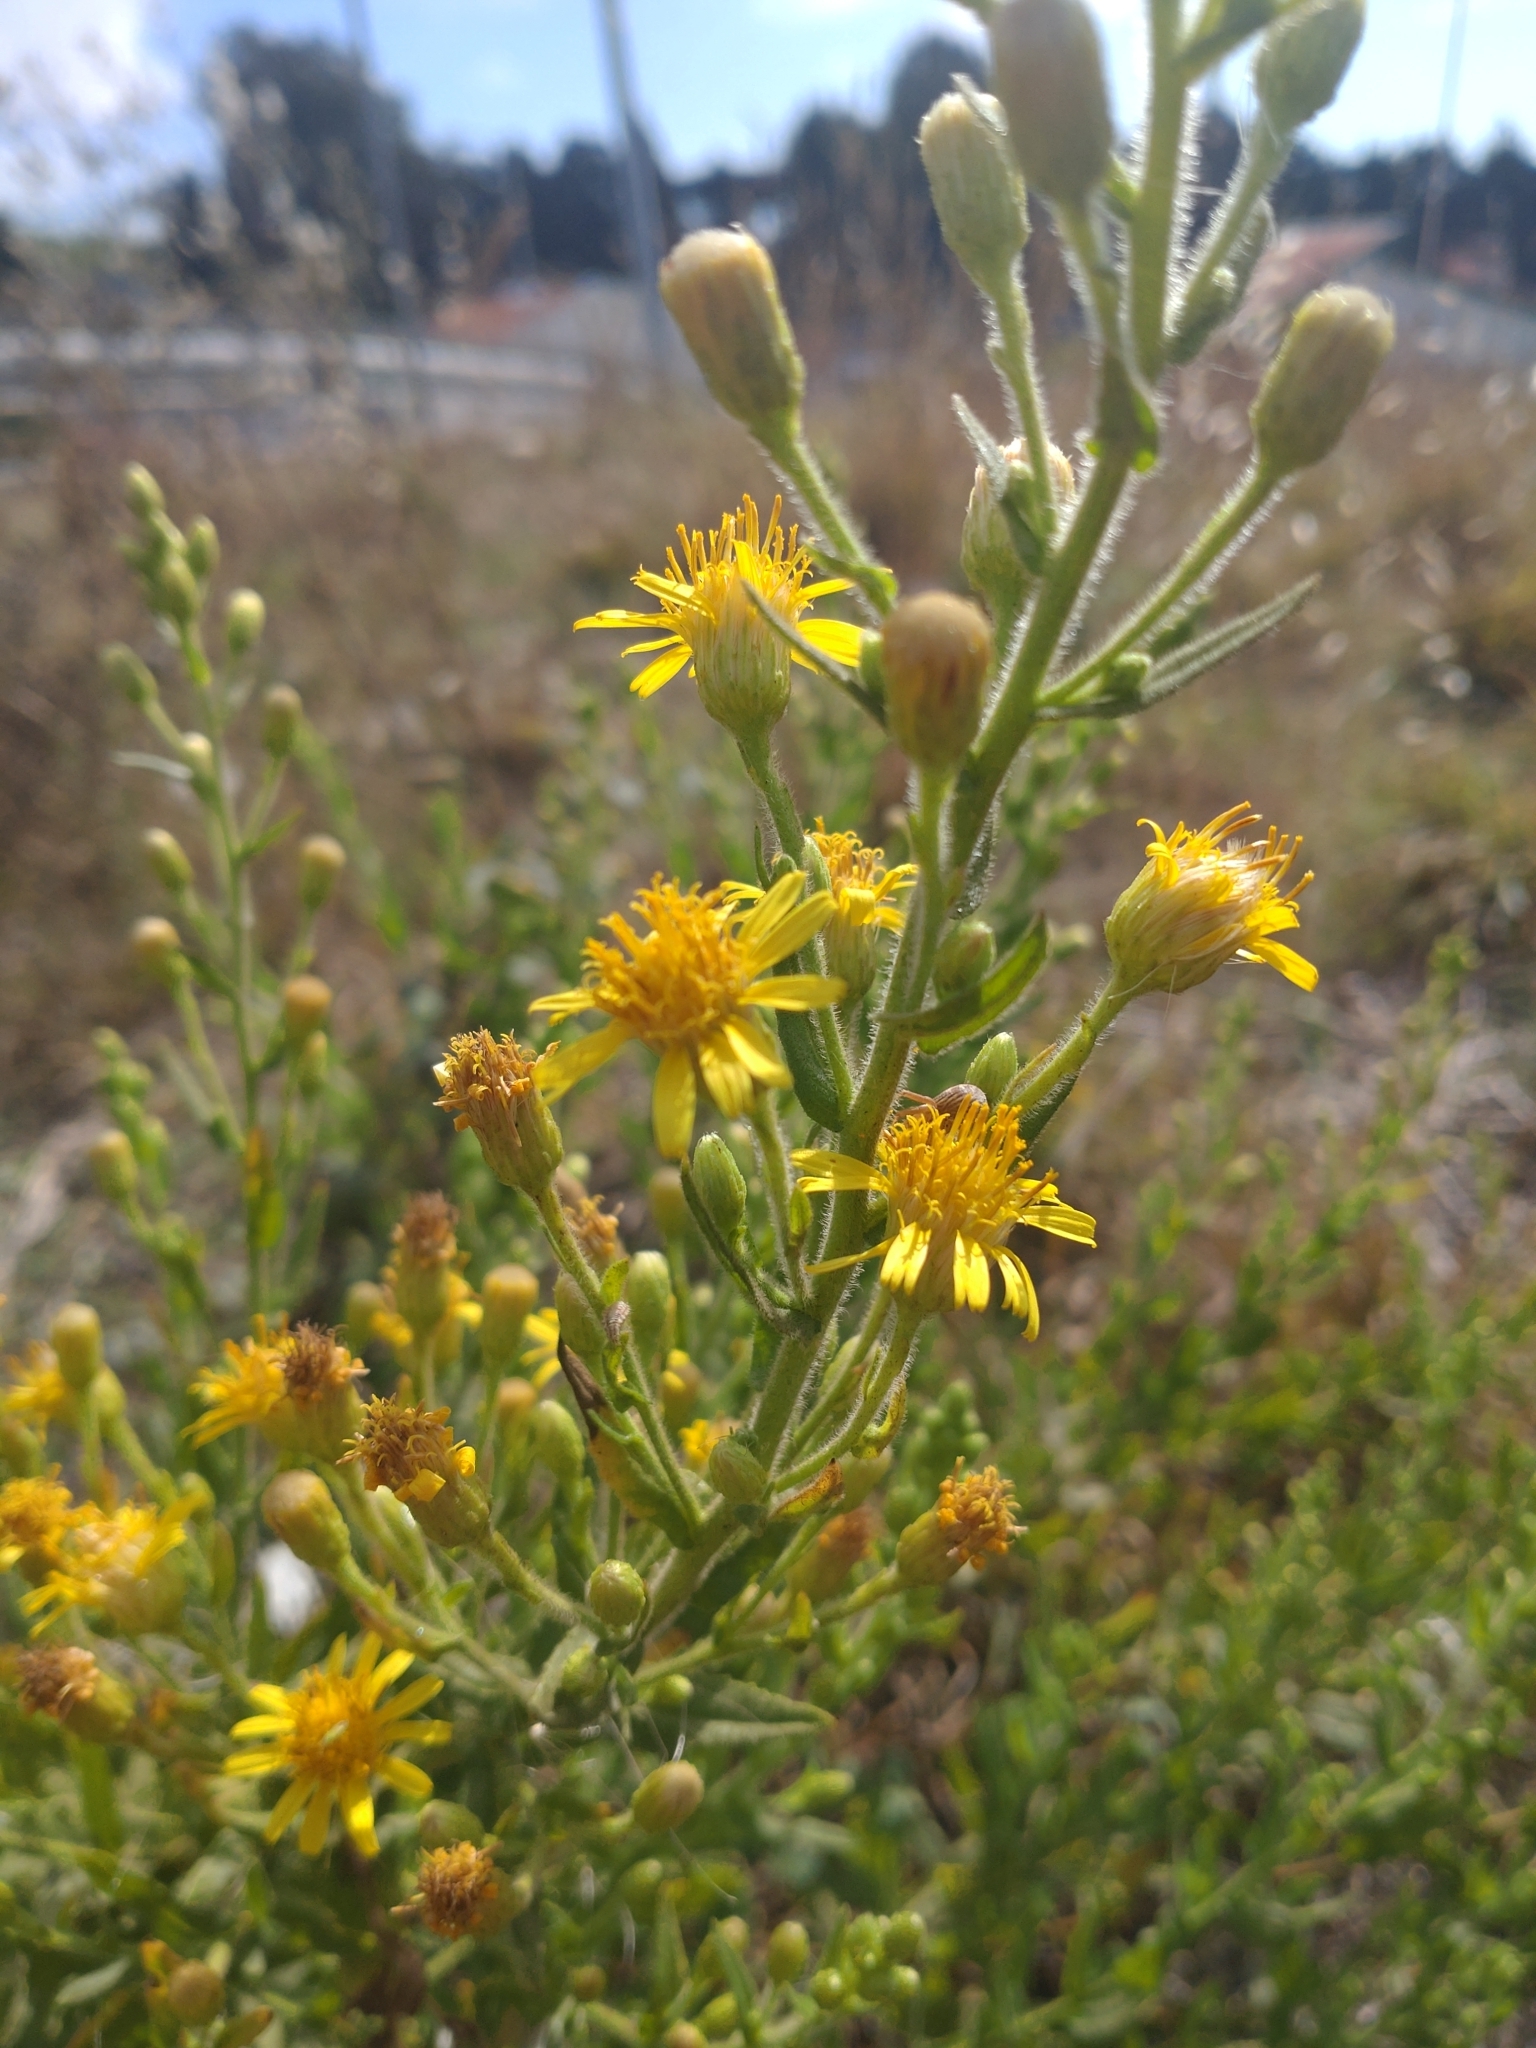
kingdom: Plantae
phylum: Tracheophyta
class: Magnoliopsida
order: Asterales
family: Asteraceae
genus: Dittrichia
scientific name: Dittrichia viscosa
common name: Woody fleabane
